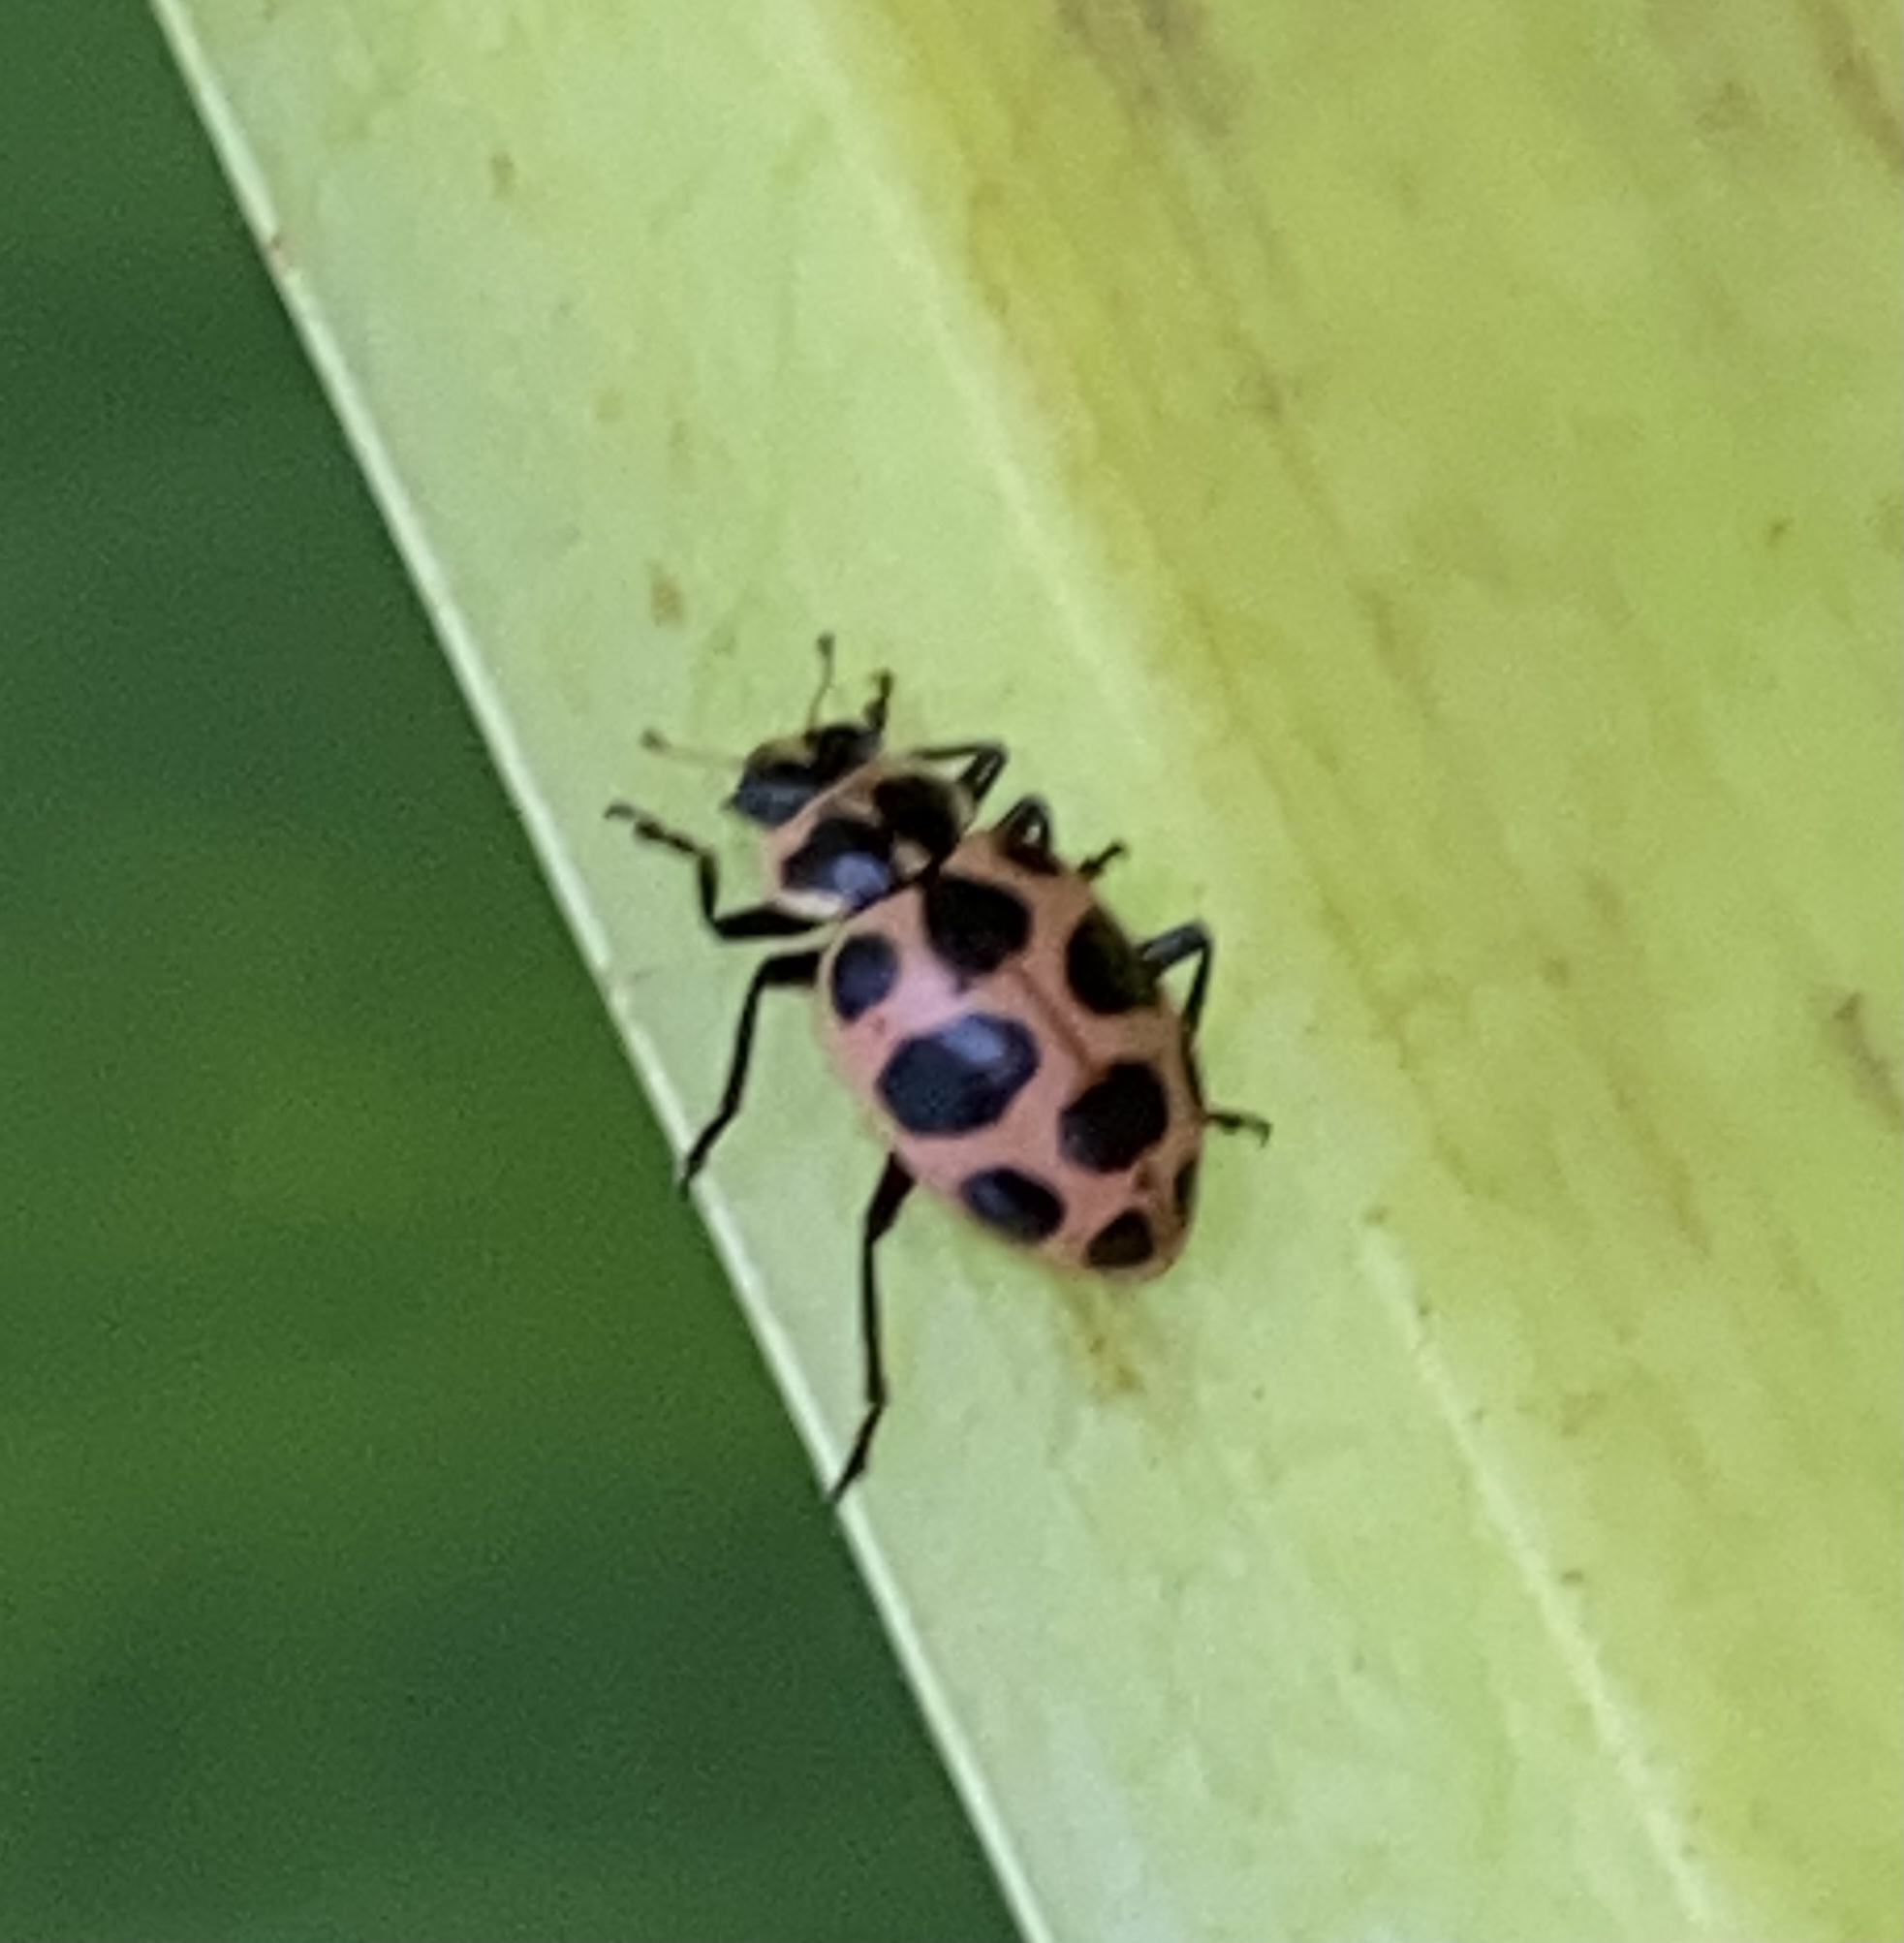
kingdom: Animalia
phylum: Arthropoda
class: Insecta
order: Coleoptera
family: Coccinellidae
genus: Coleomegilla
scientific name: Coleomegilla maculata
